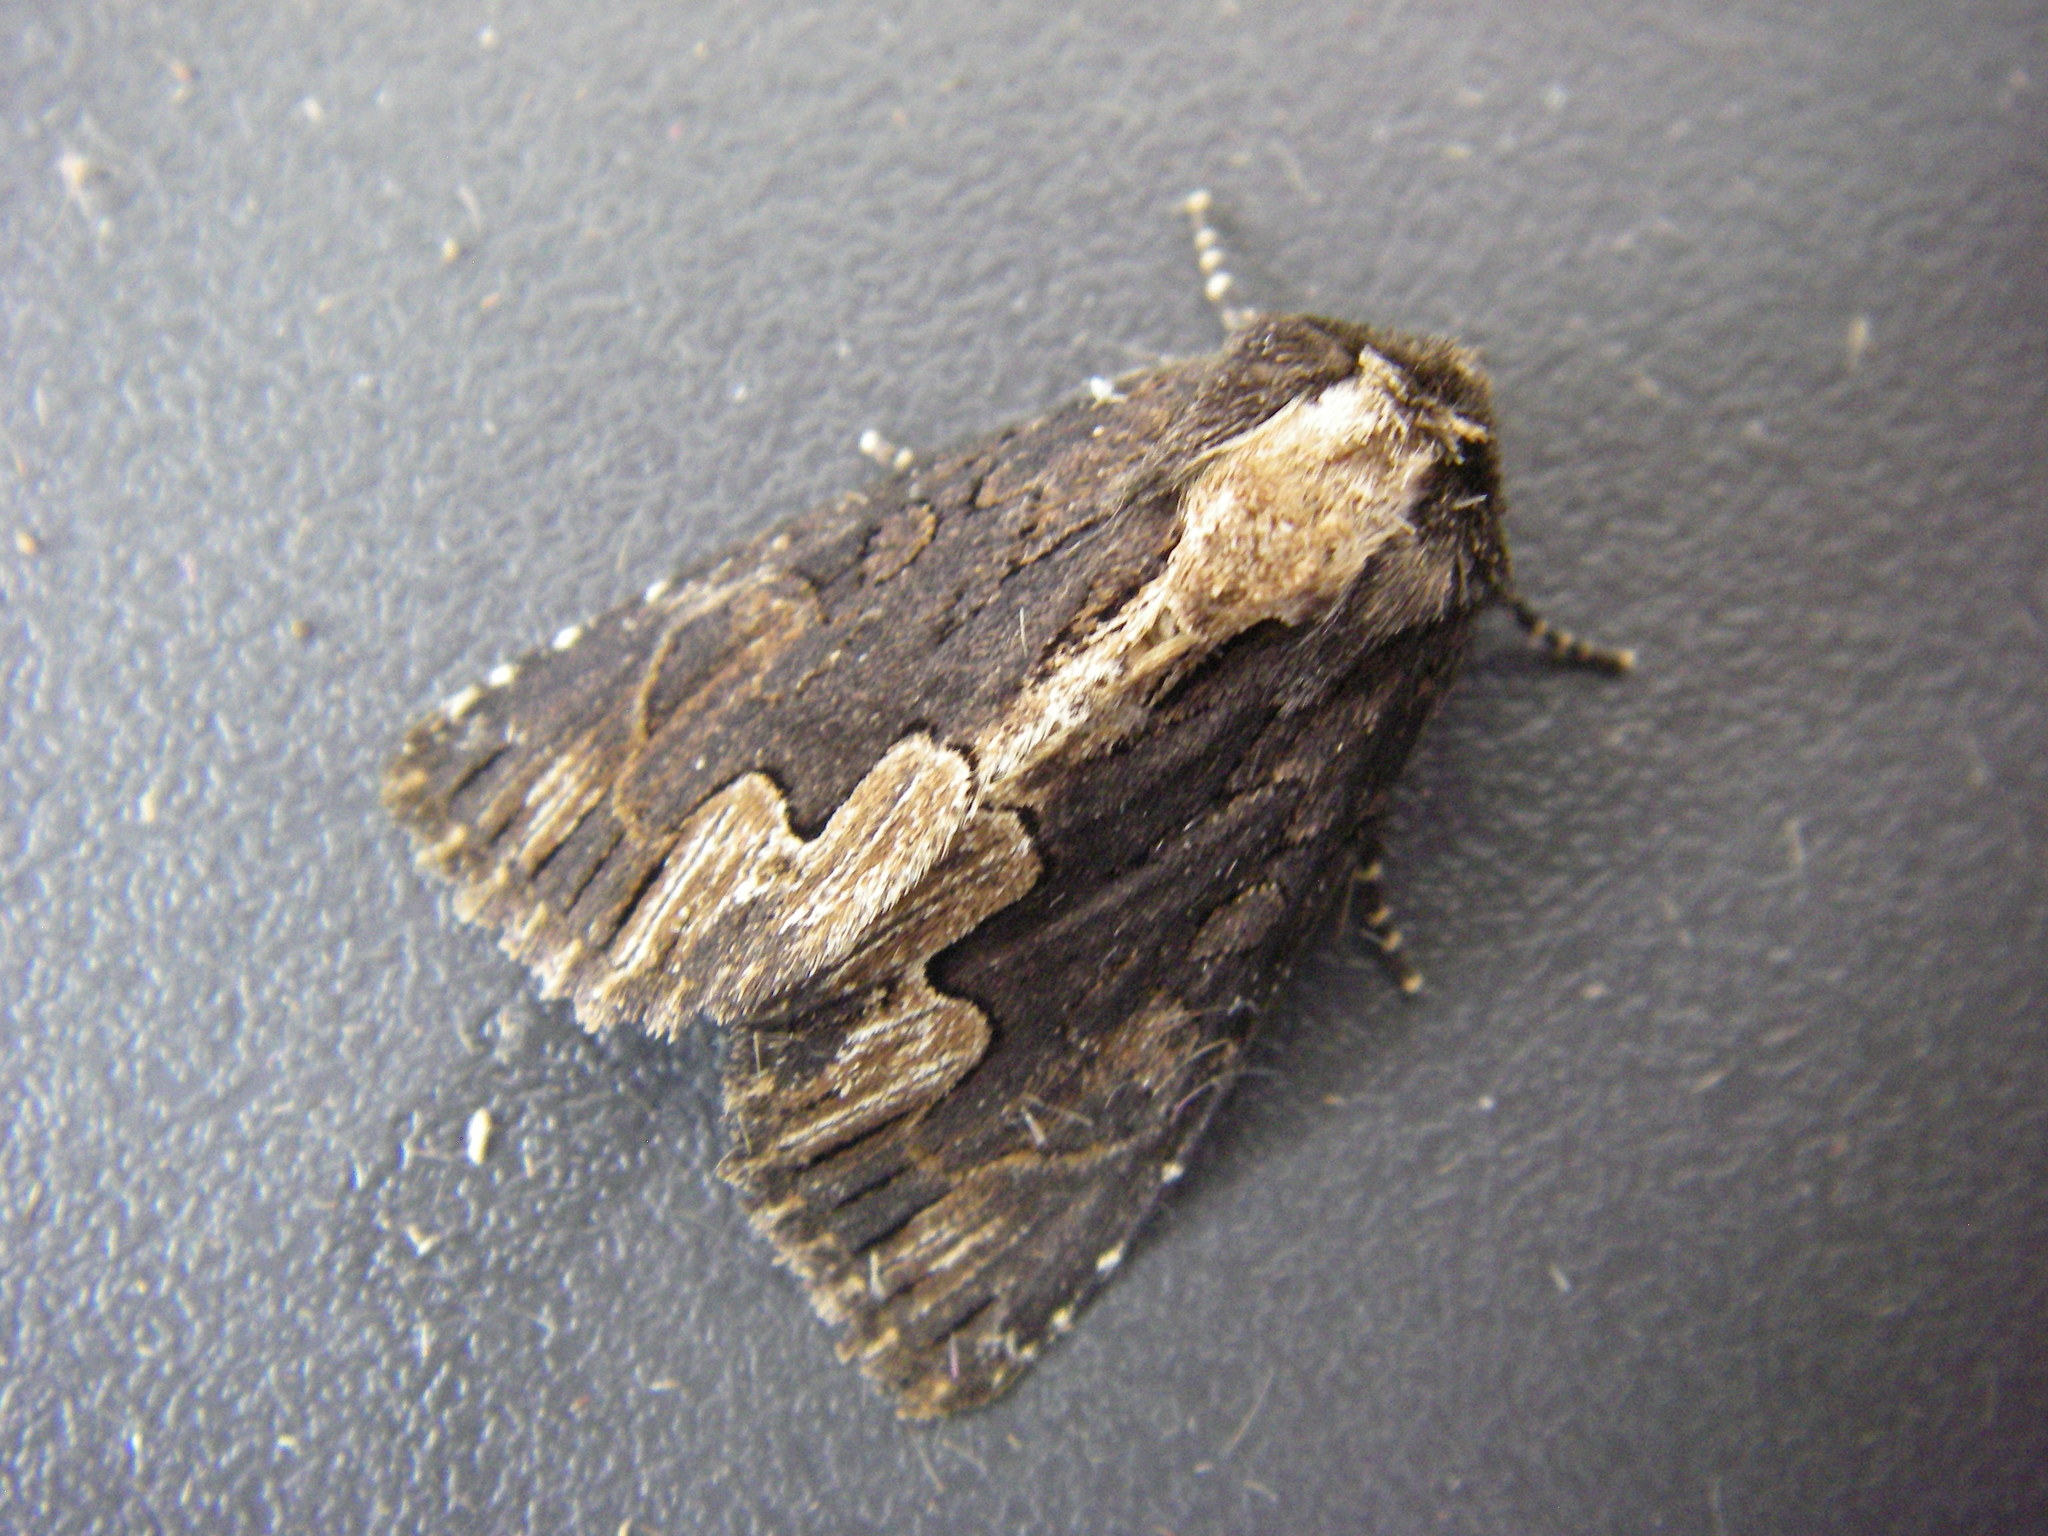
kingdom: Animalia
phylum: Arthropoda
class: Insecta
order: Lepidoptera
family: Noctuidae
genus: Dypterygia
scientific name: Dypterygia scabriuscula
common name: Bird's wing
